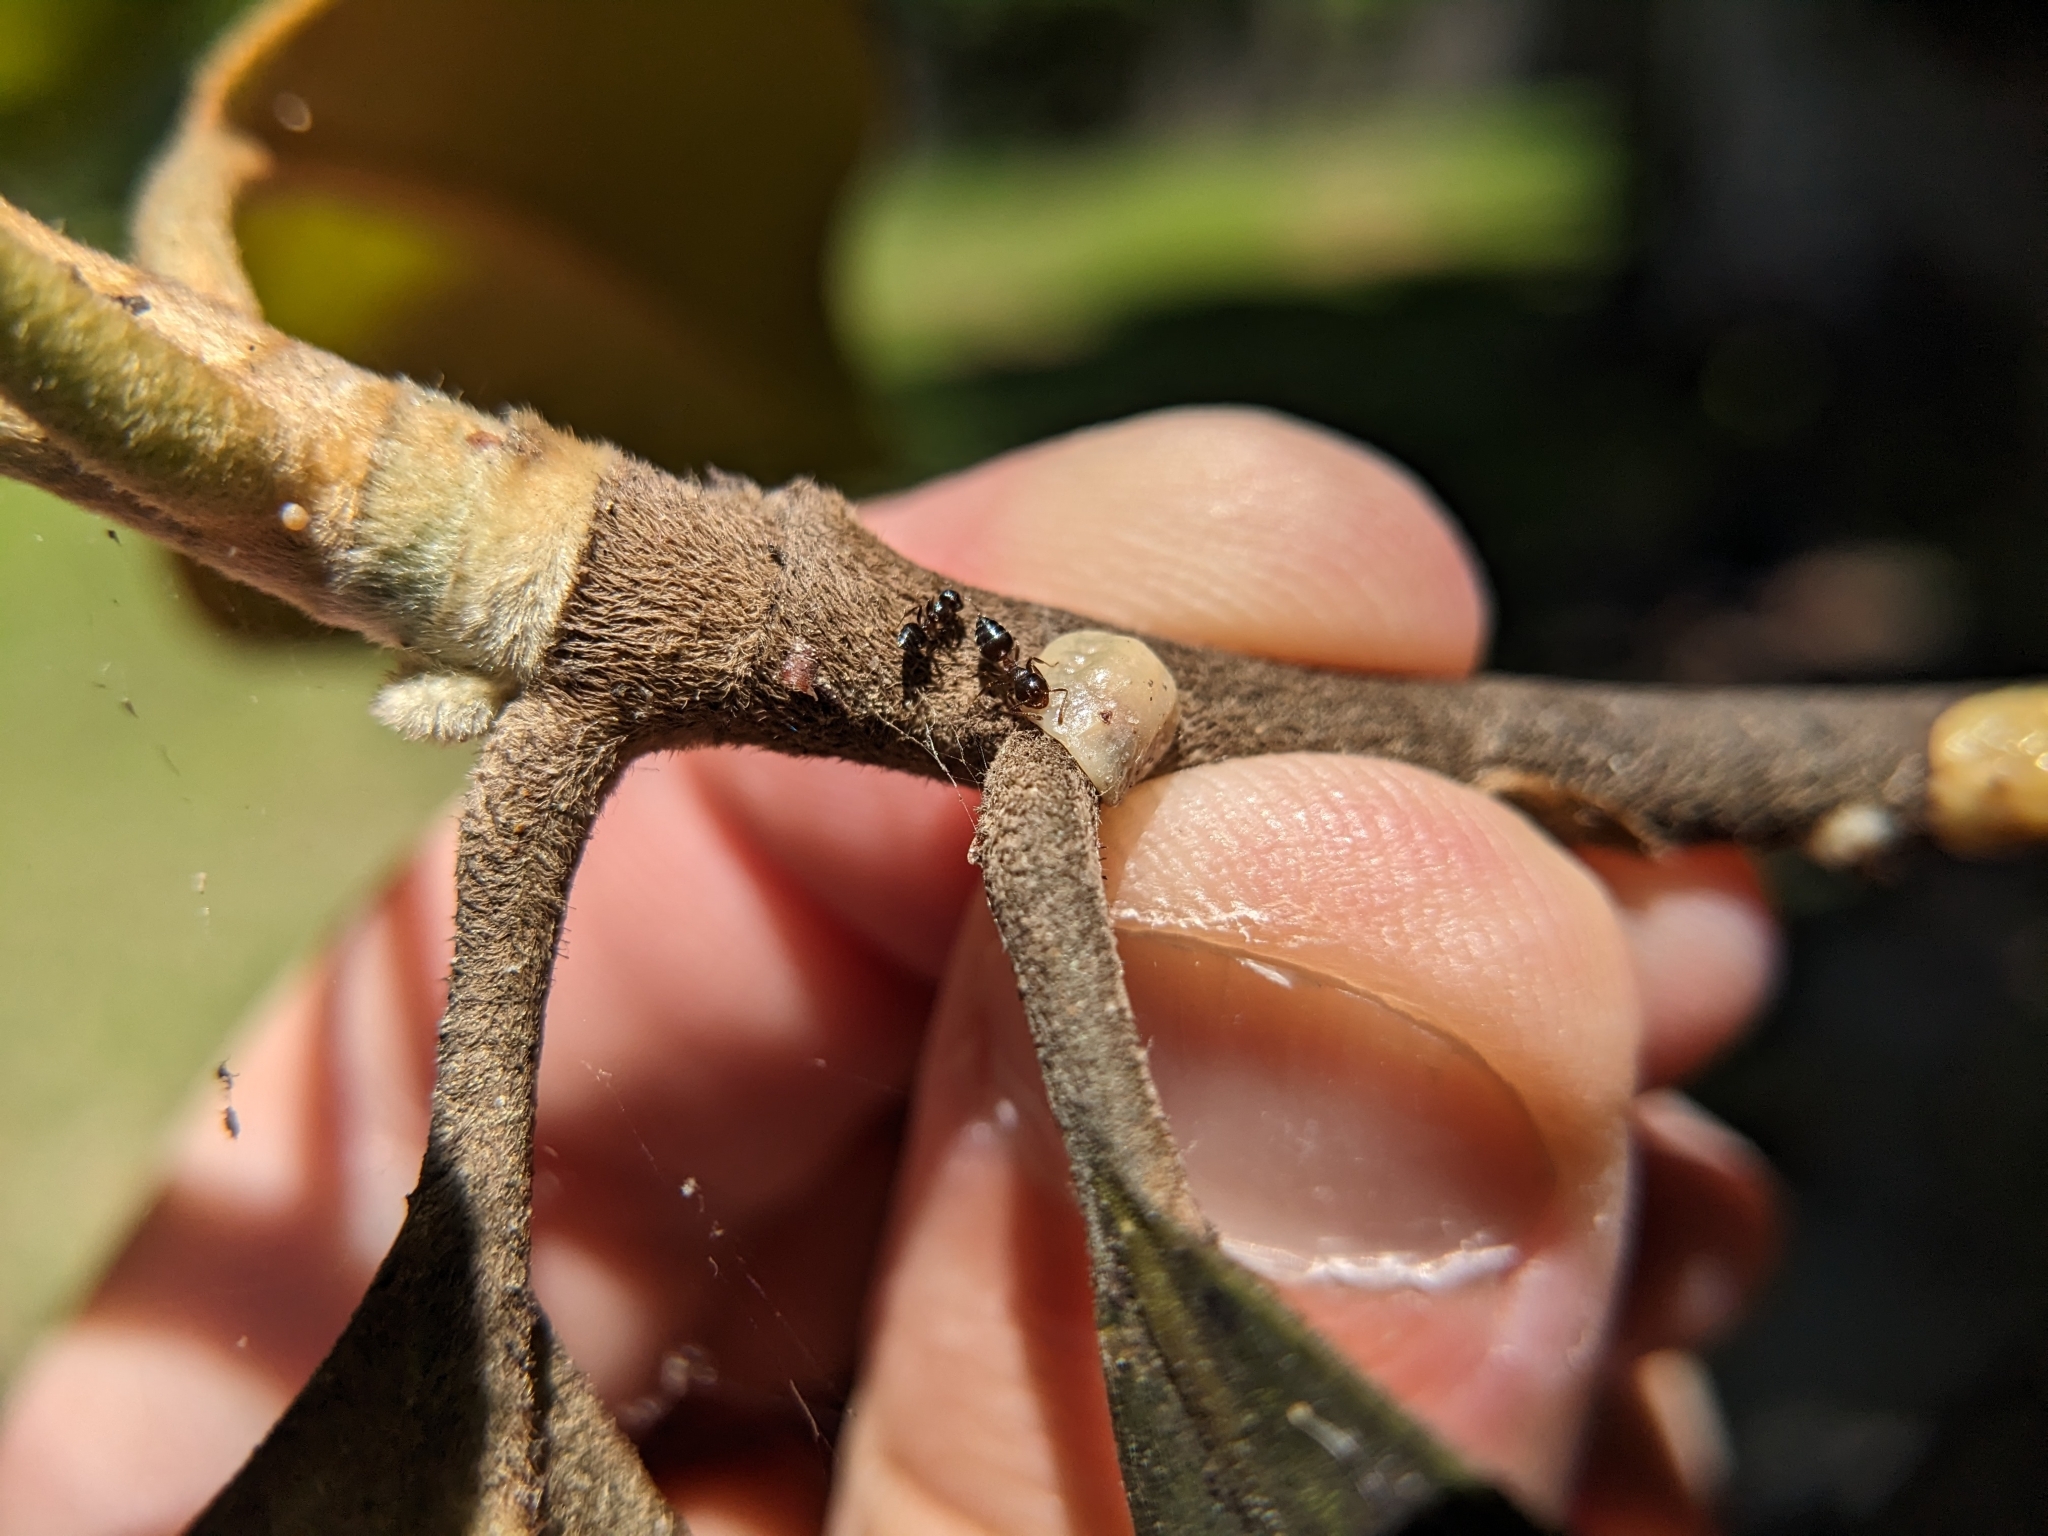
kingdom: Animalia
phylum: Arthropoda
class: Insecta
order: Hymenoptera
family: Formicidae
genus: Crematogaster
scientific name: Crematogaster ashmeadi
